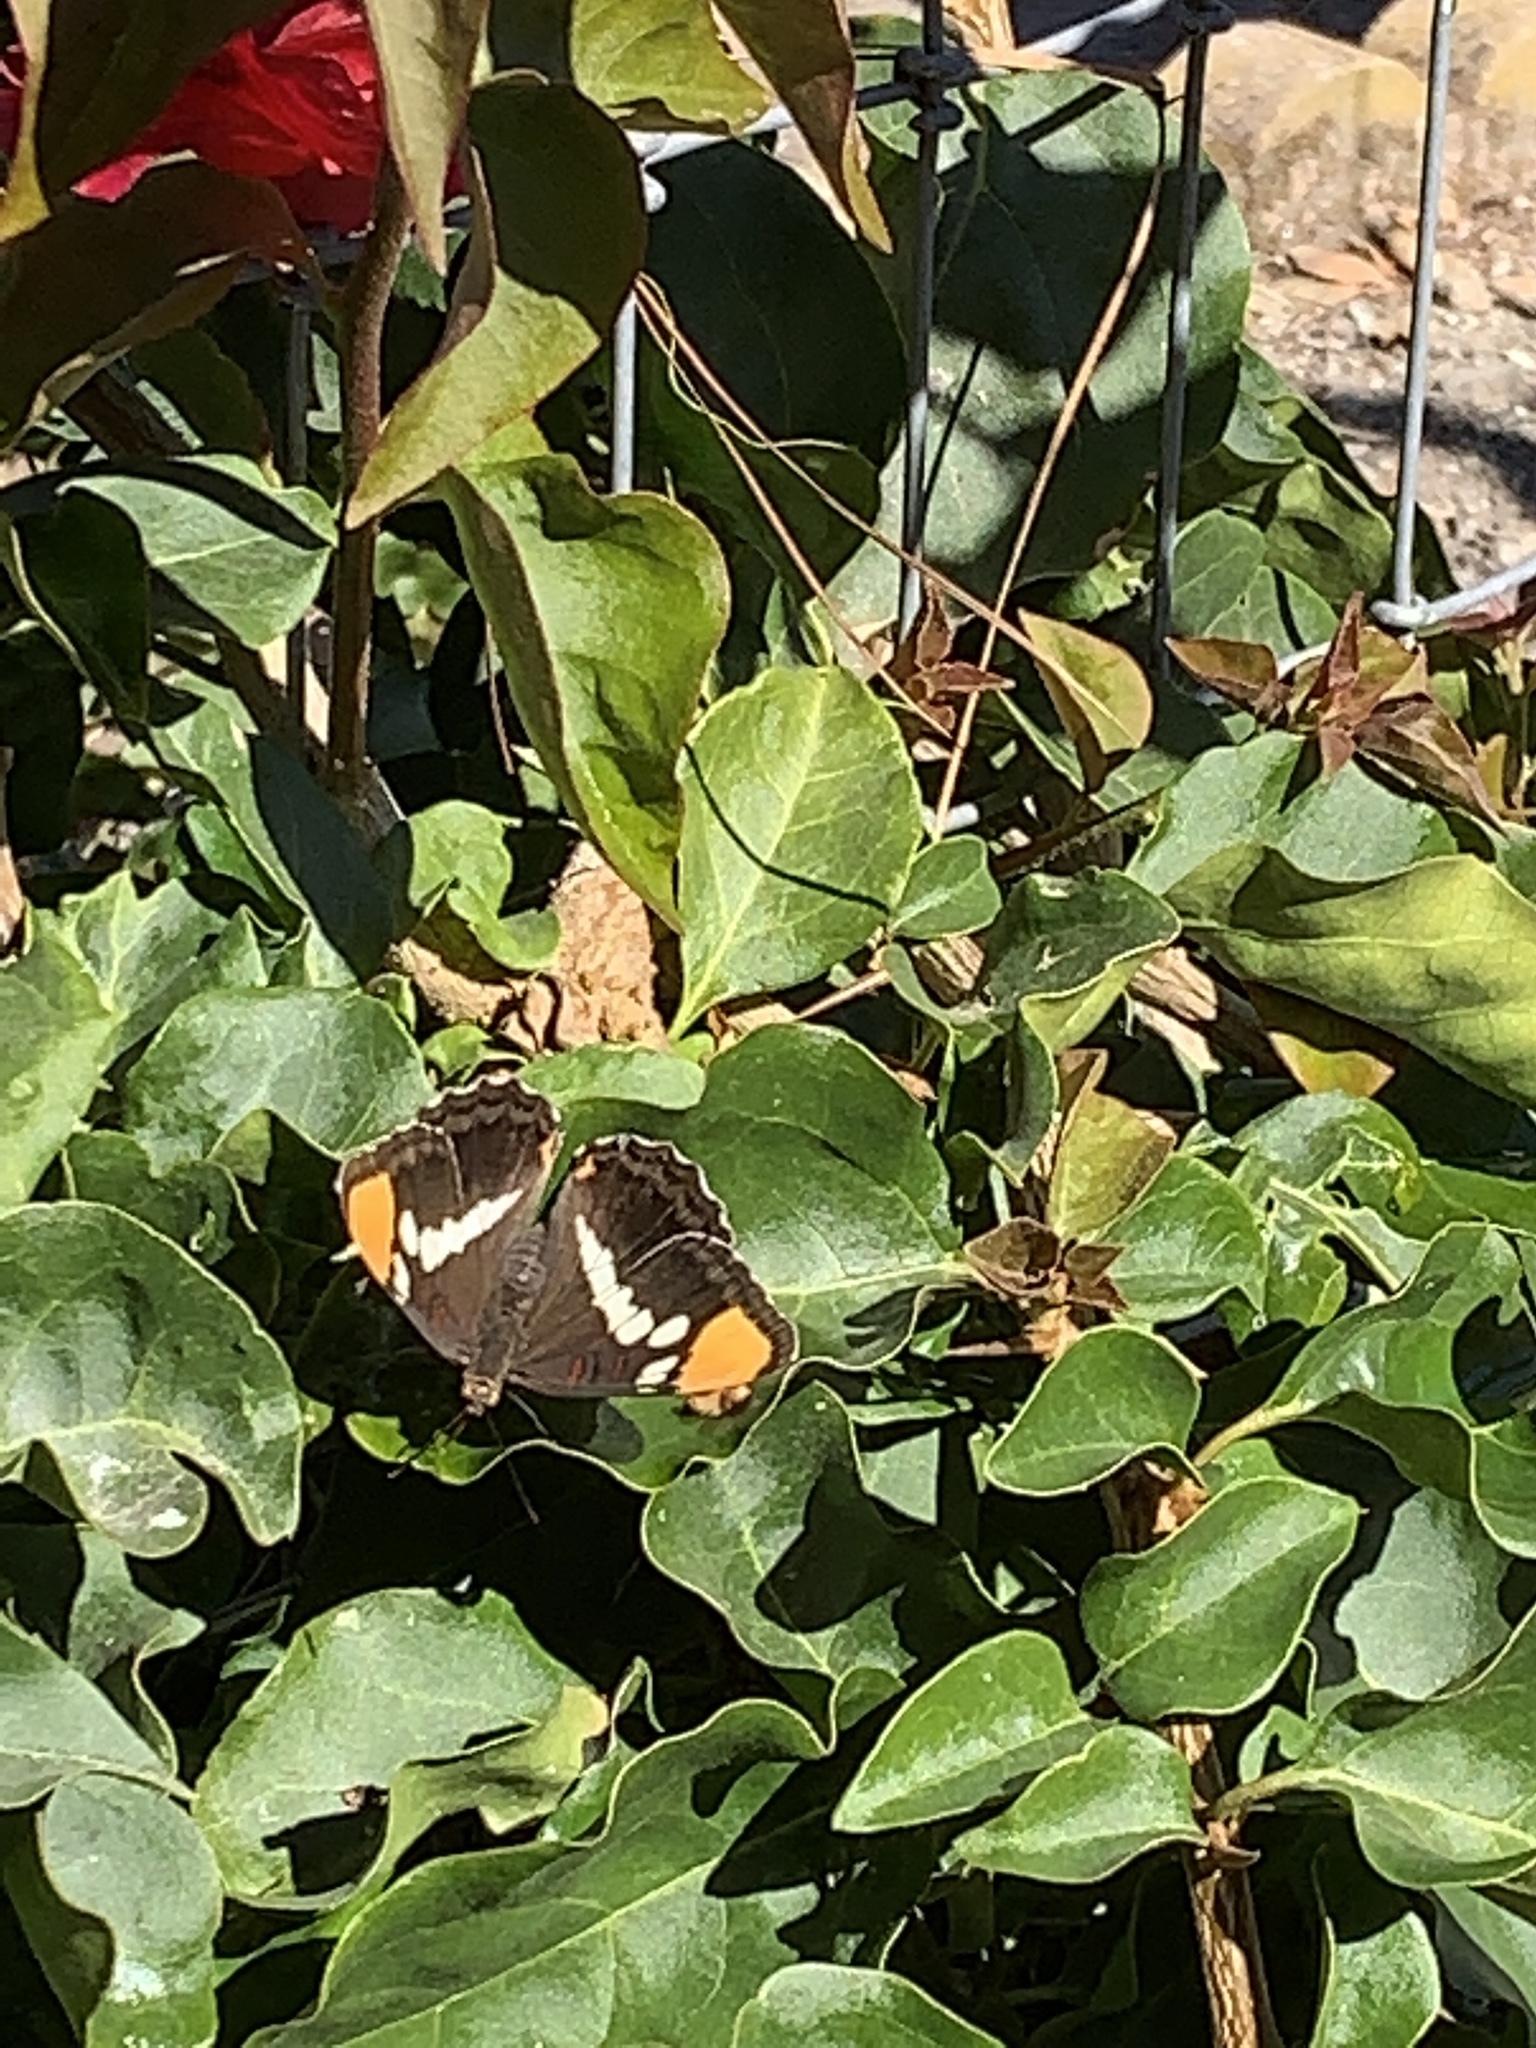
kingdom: Animalia
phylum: Arthropoda
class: Insecta
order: Lepidoptera
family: Nymphalidae
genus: Limenitis
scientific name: Limenitis bredowii
